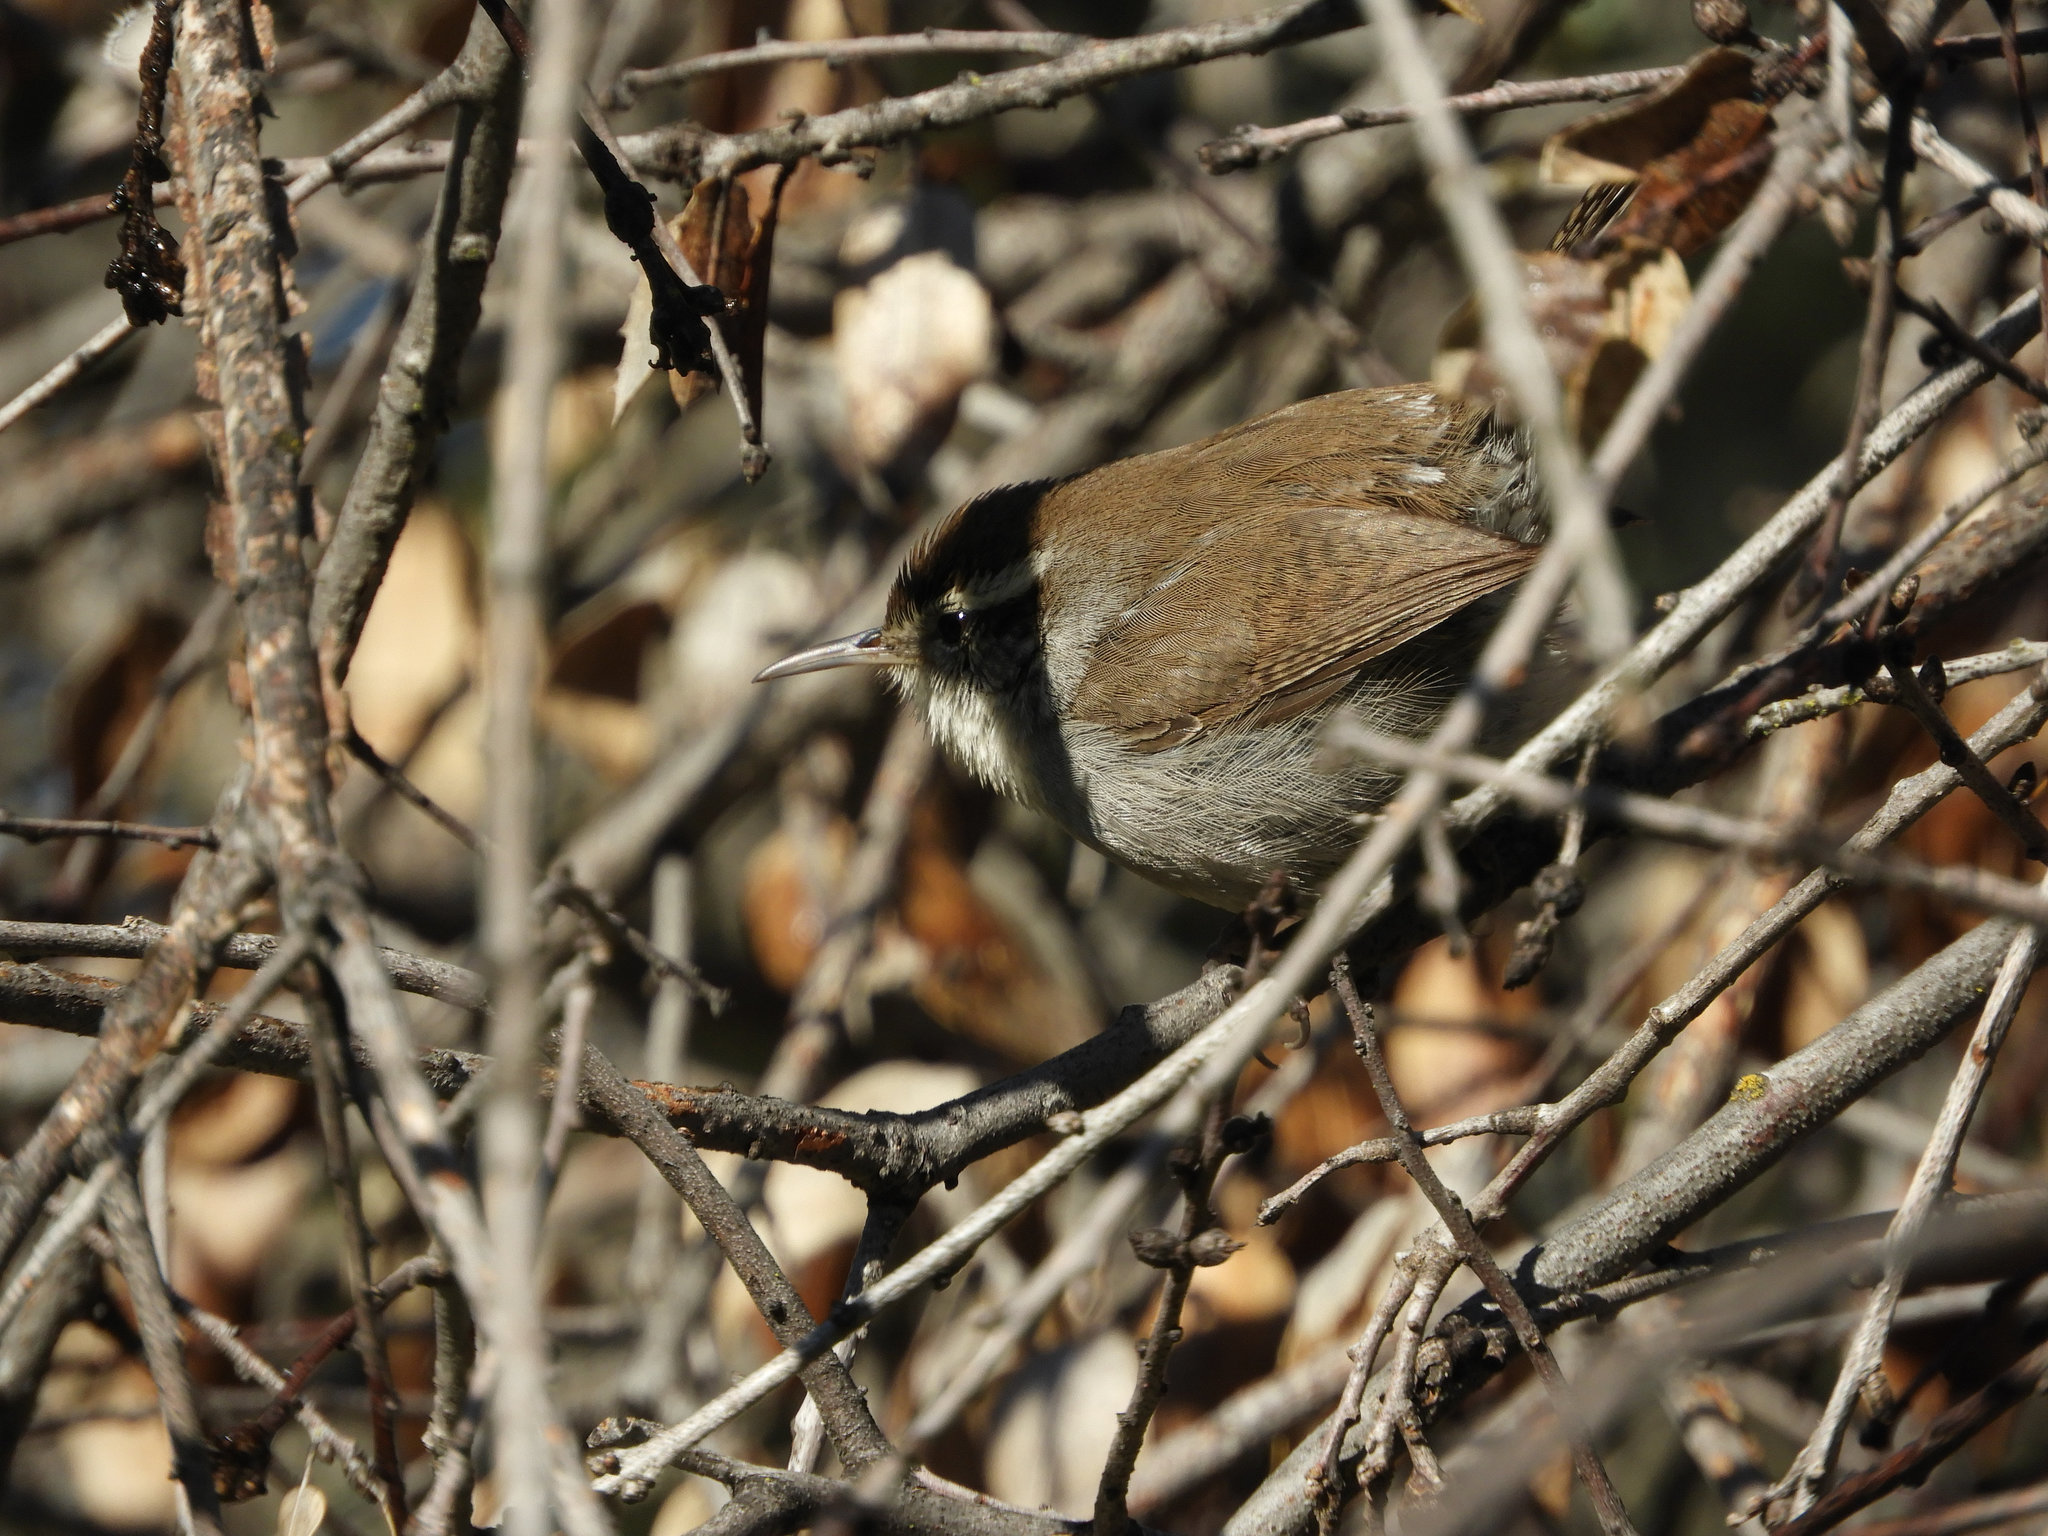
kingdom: Animalia
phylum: Chordata
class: Aves
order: Passeriformes
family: Troglodytidae
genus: Thryomanes
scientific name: Thryomanes bewickii
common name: Bewick's wren
